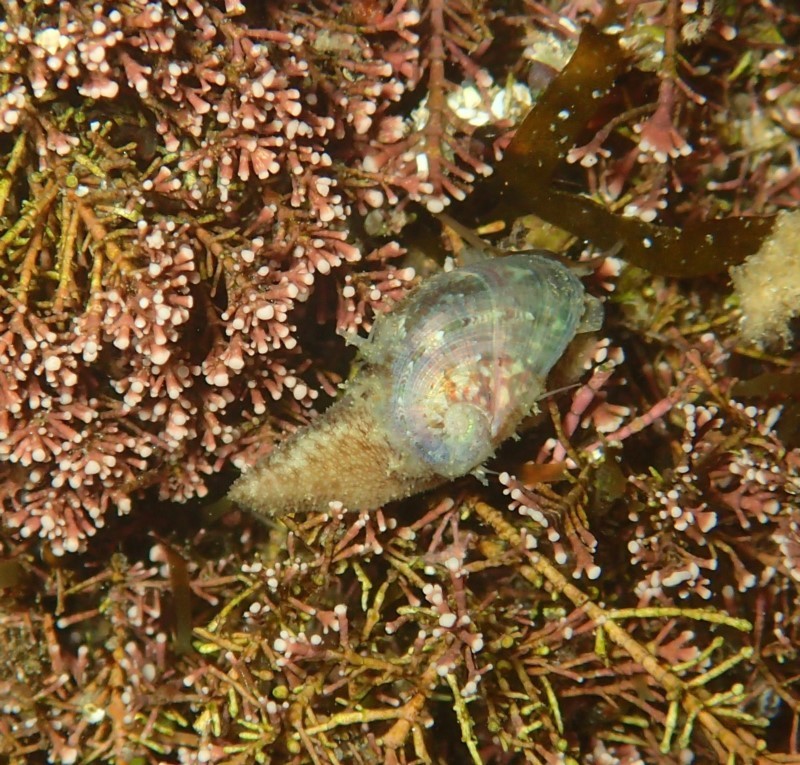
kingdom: Animalia
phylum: Mollusca
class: Gastropoda
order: Trochida
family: Trochidae
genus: Stomatella
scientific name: Stomatella impertusa
